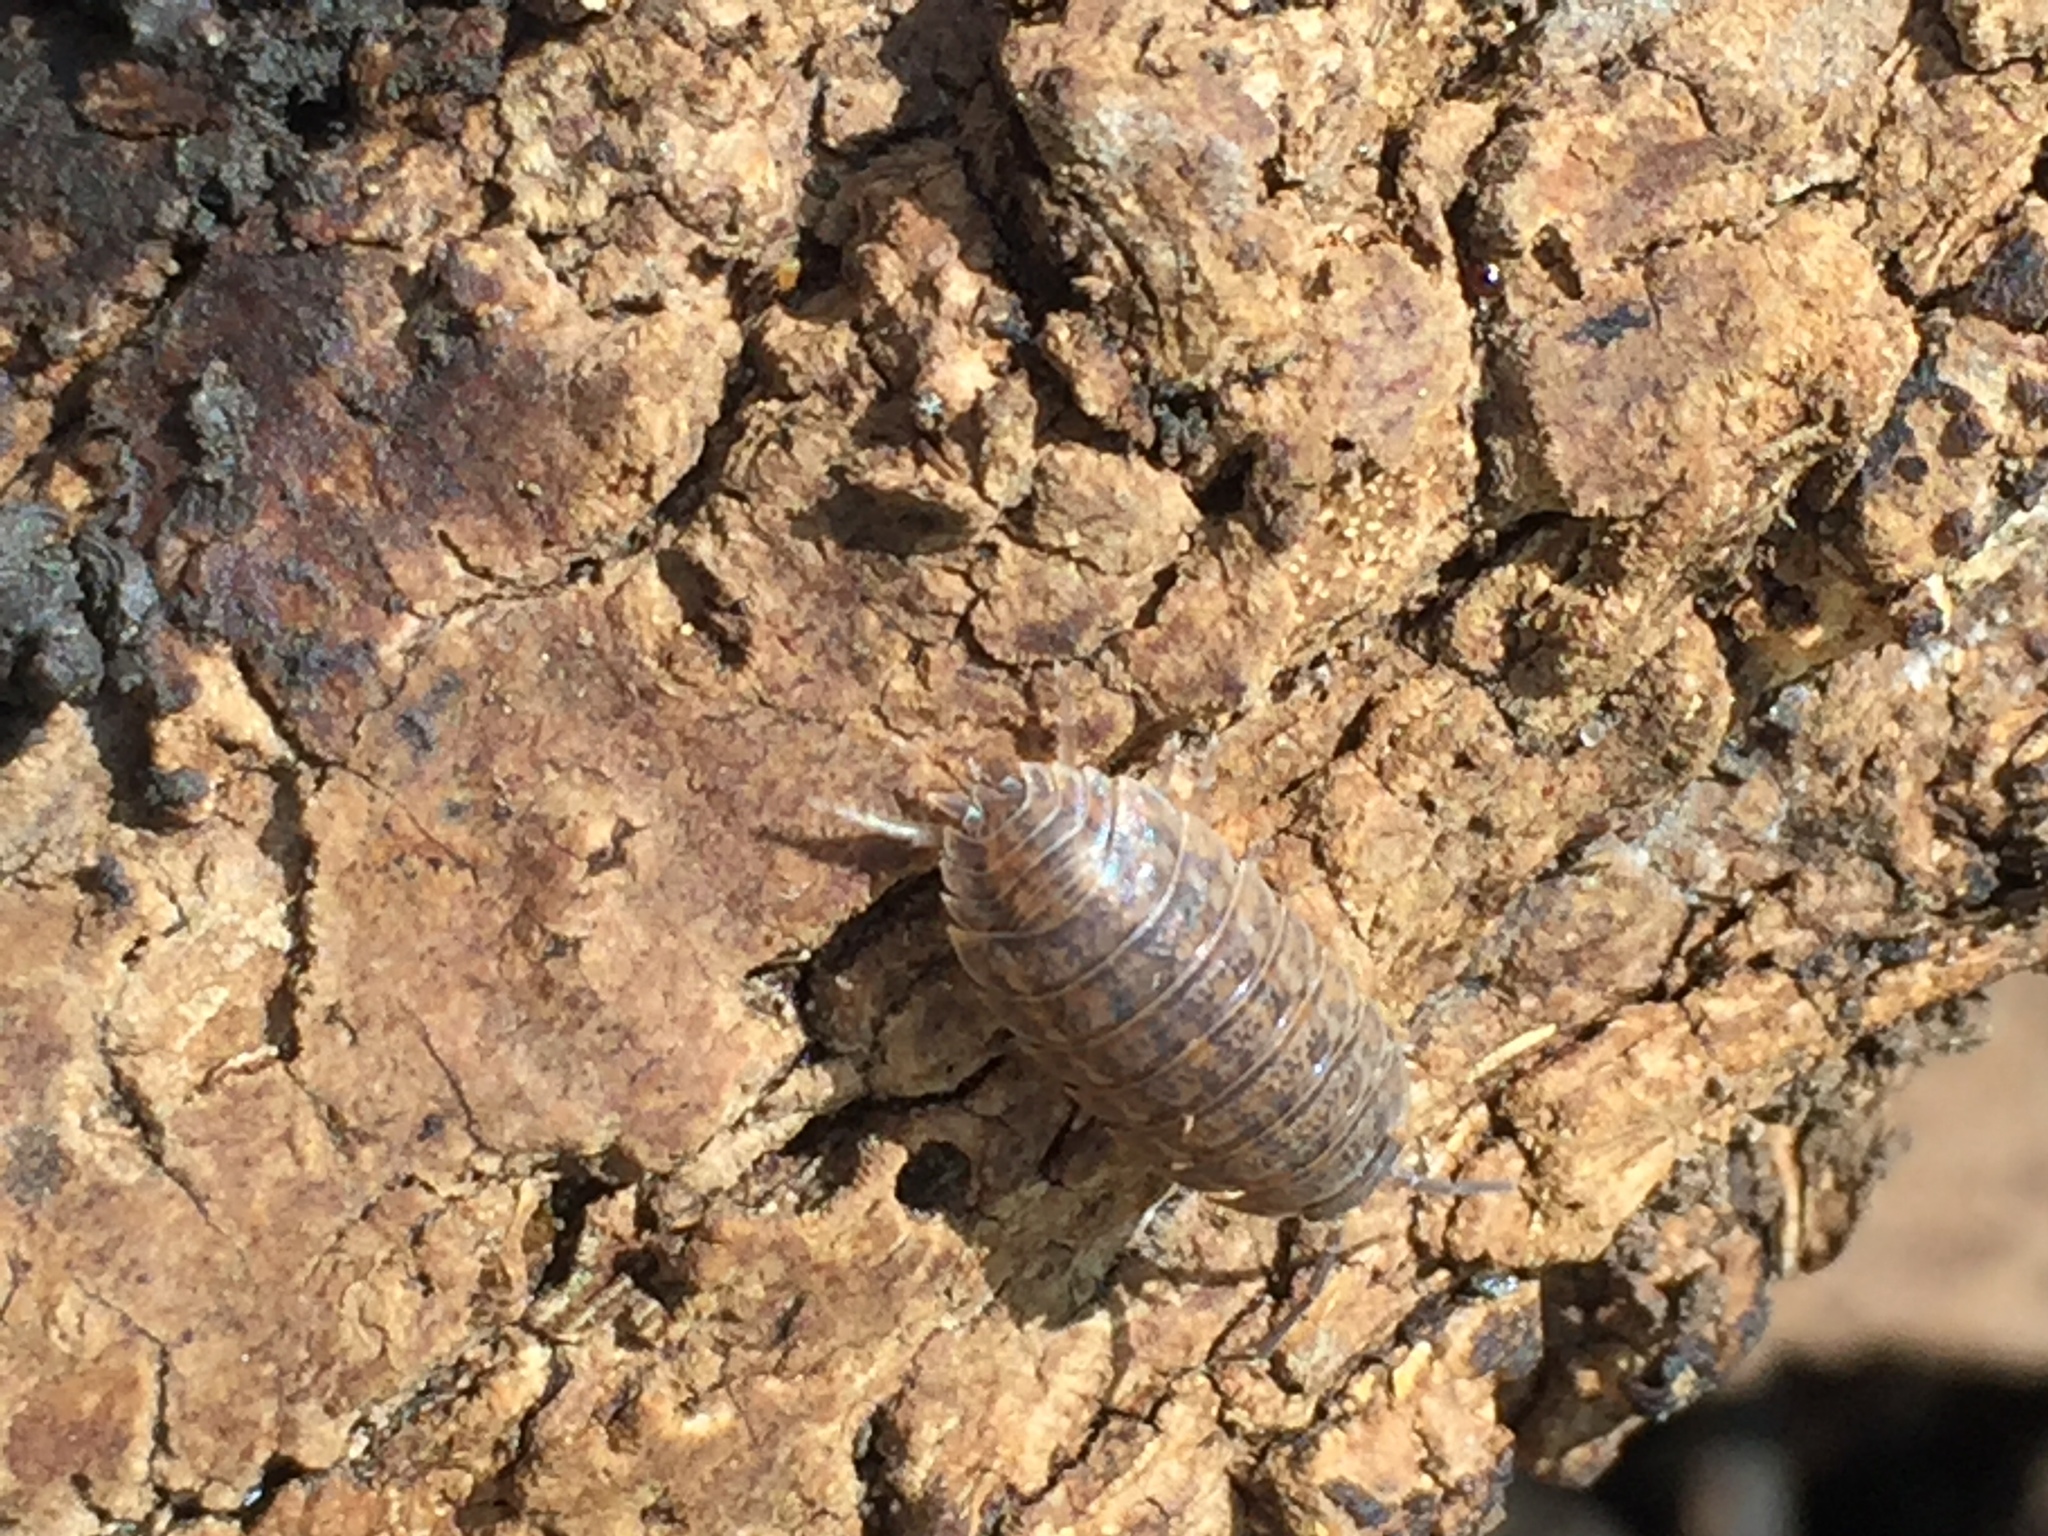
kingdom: Animalia
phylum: Arthropoda
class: Malacostraca
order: Isopoda
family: Trachelipodidae
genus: Trachelipus
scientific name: Trachelipus rathkii
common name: Isopod
